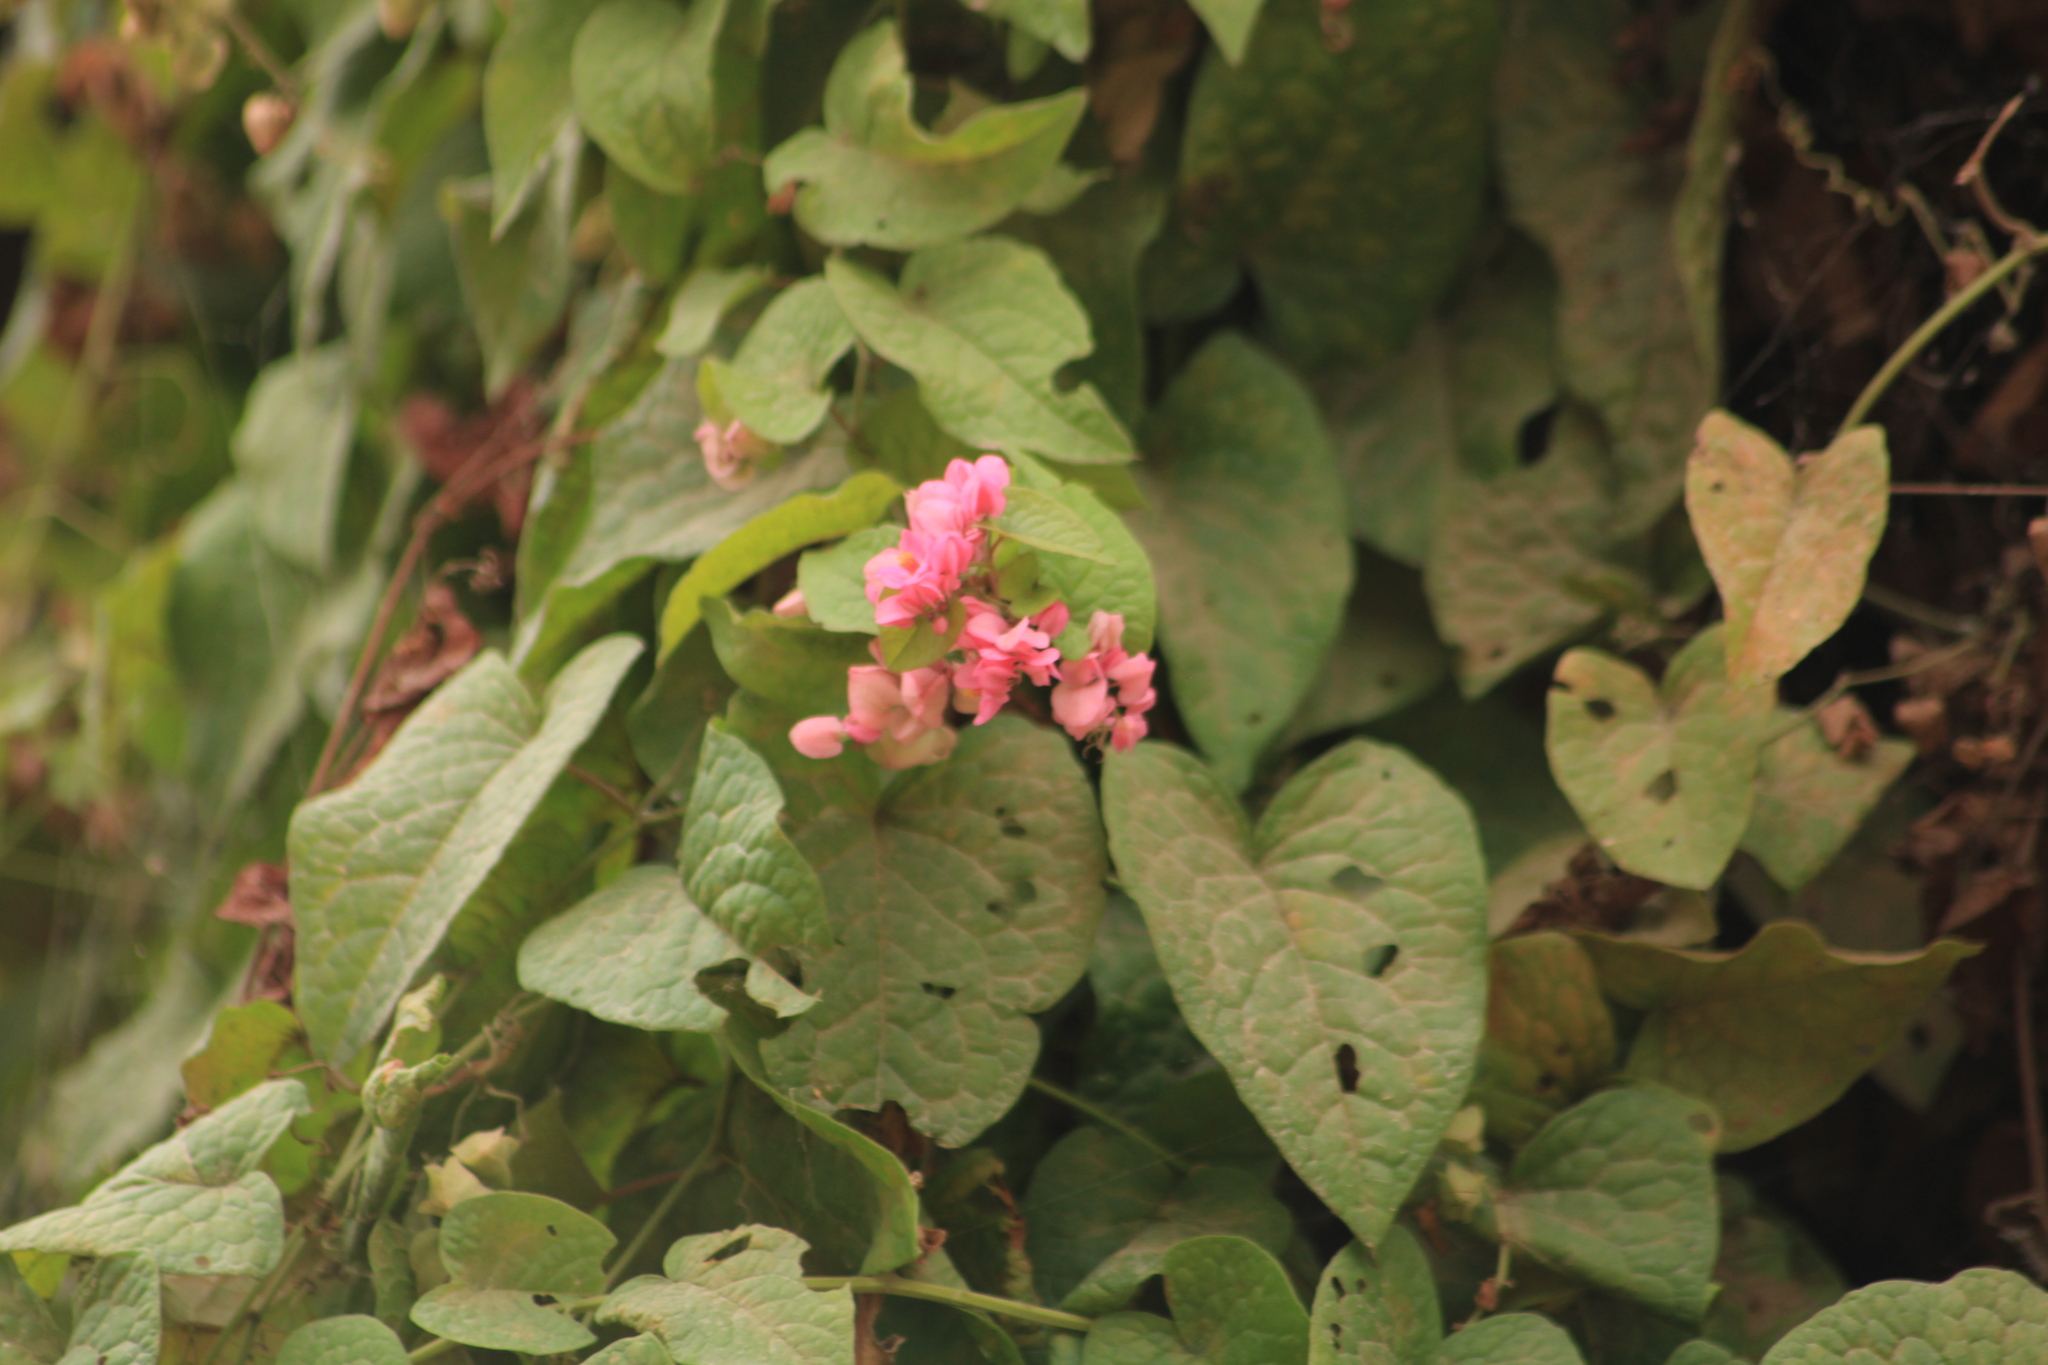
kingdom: Plantae
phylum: Tracheophyta
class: Magnoliopsida
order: Caryophyllales
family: Polygonaceae
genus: Antigonon
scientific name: Antigonon leptopus
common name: Coral vine
